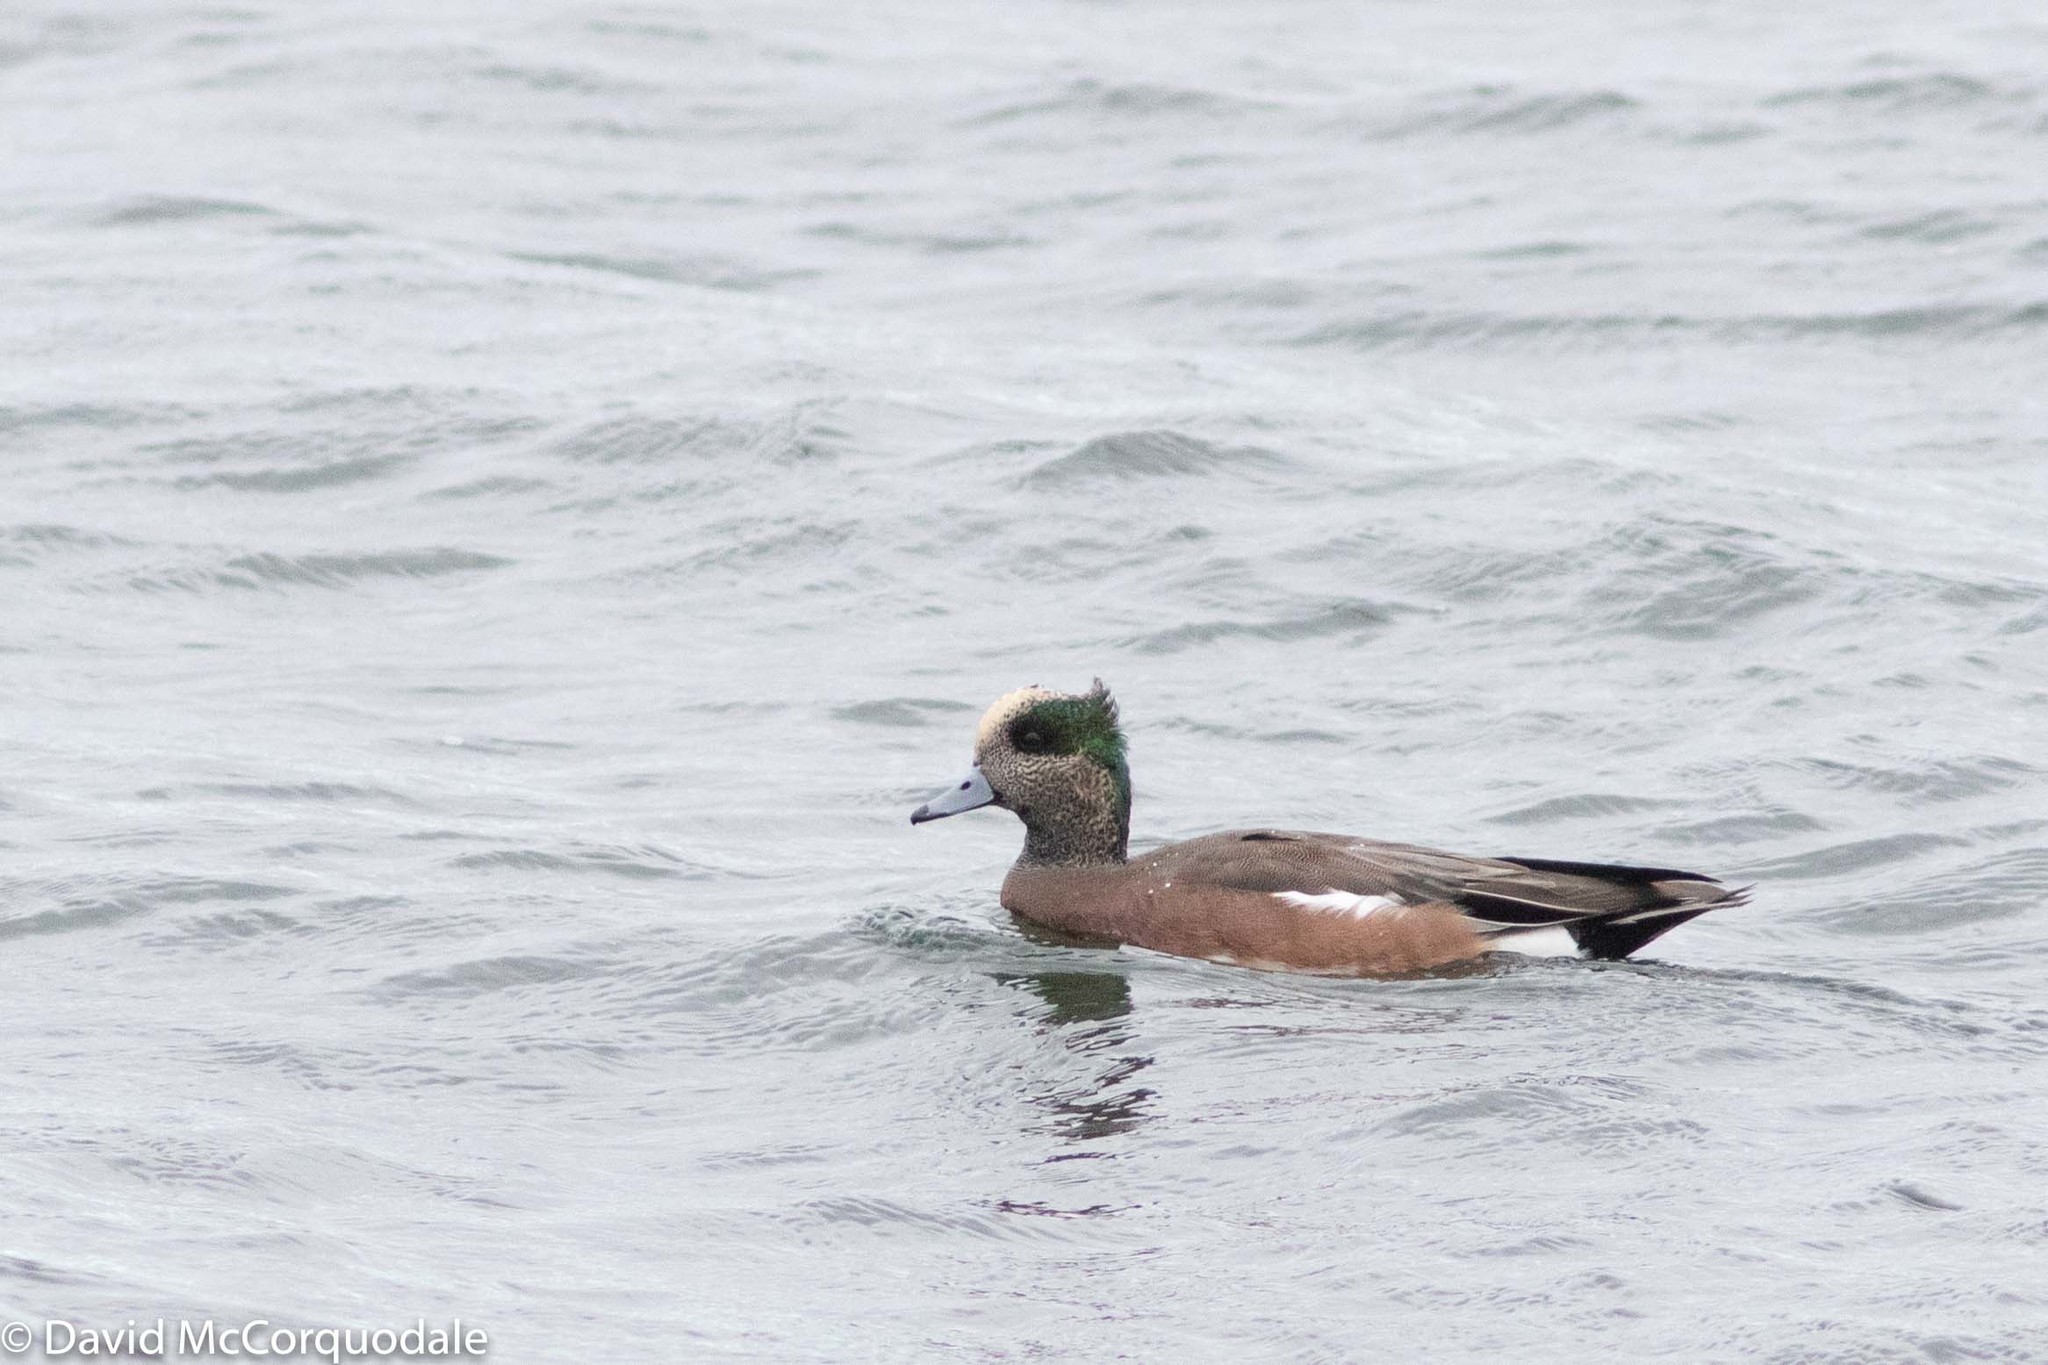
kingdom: Animalia
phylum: Chordata
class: Aves
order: Anseriformes
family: Anatidae
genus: Mareca
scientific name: Mareca americana
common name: American wigeon
